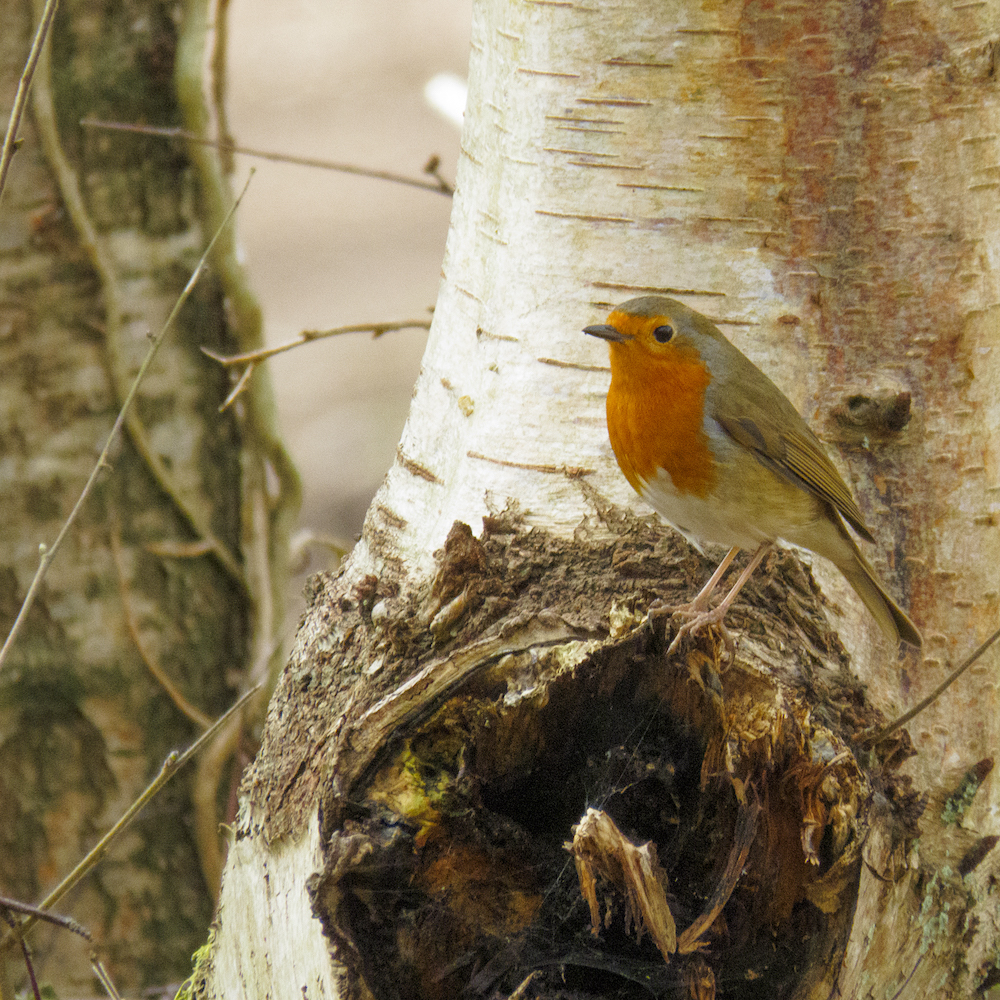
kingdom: Animalia
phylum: Chordata
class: Aves
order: Passeriformes
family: Muscicapidae
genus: Erithacus
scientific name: Erithacus rubecula
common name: European robin
